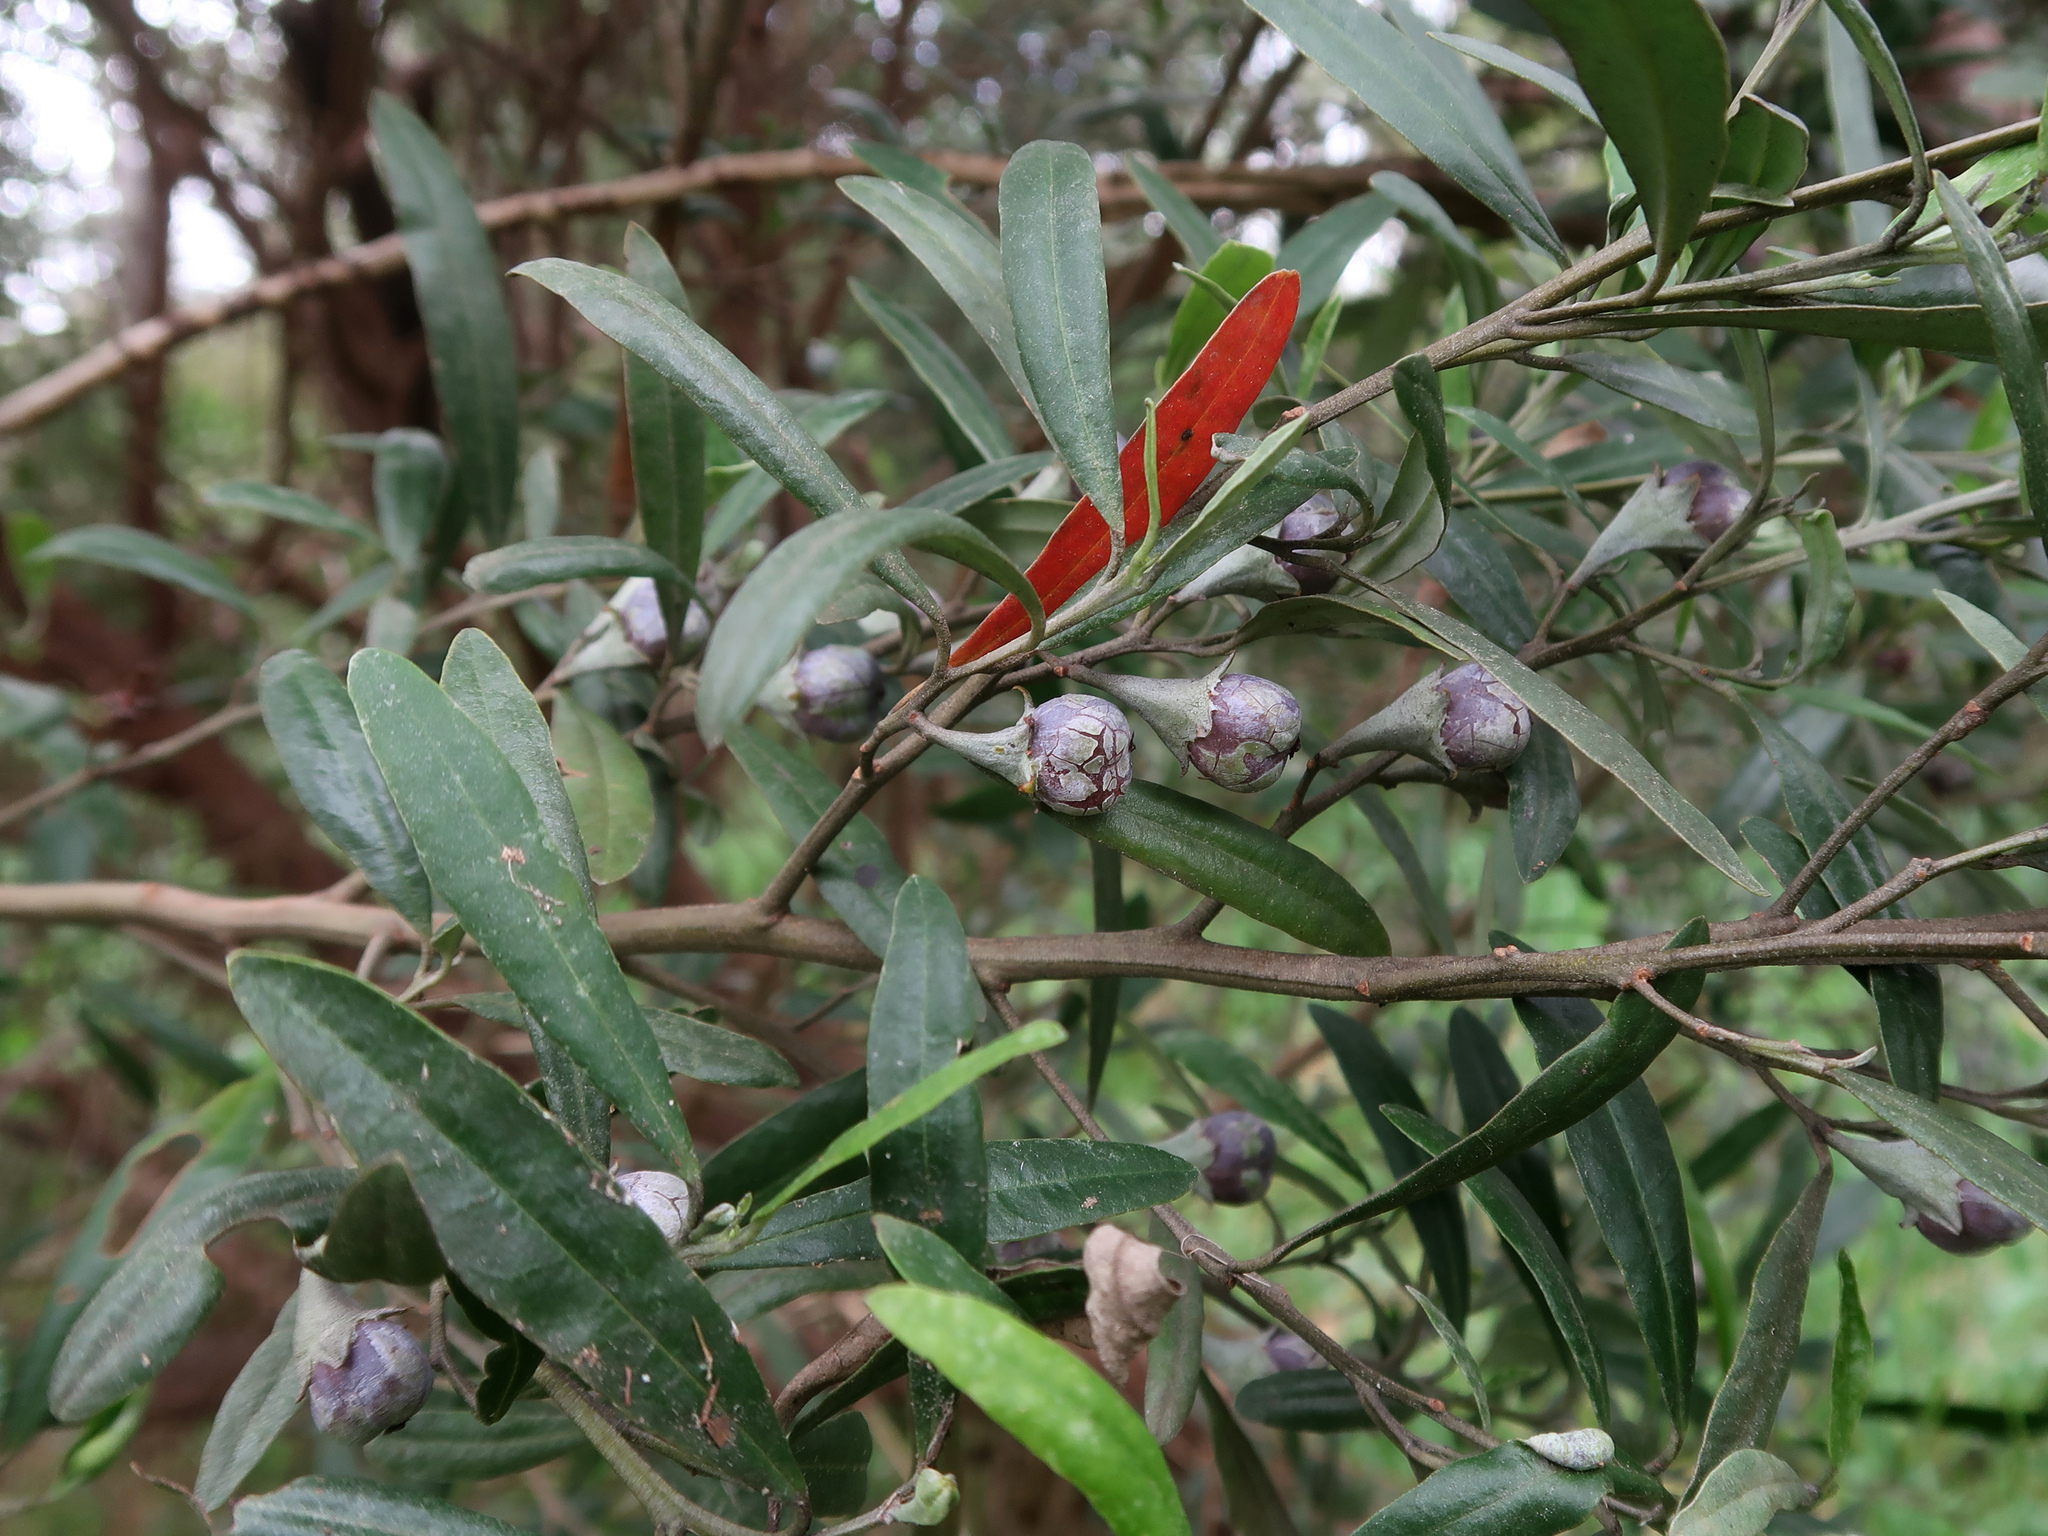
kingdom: Plantae
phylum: Tracheophyta
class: Magnoliopsida
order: Malpighiales
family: Euphorbiaceae
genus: Beyeria
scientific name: Beyeria viscosa
